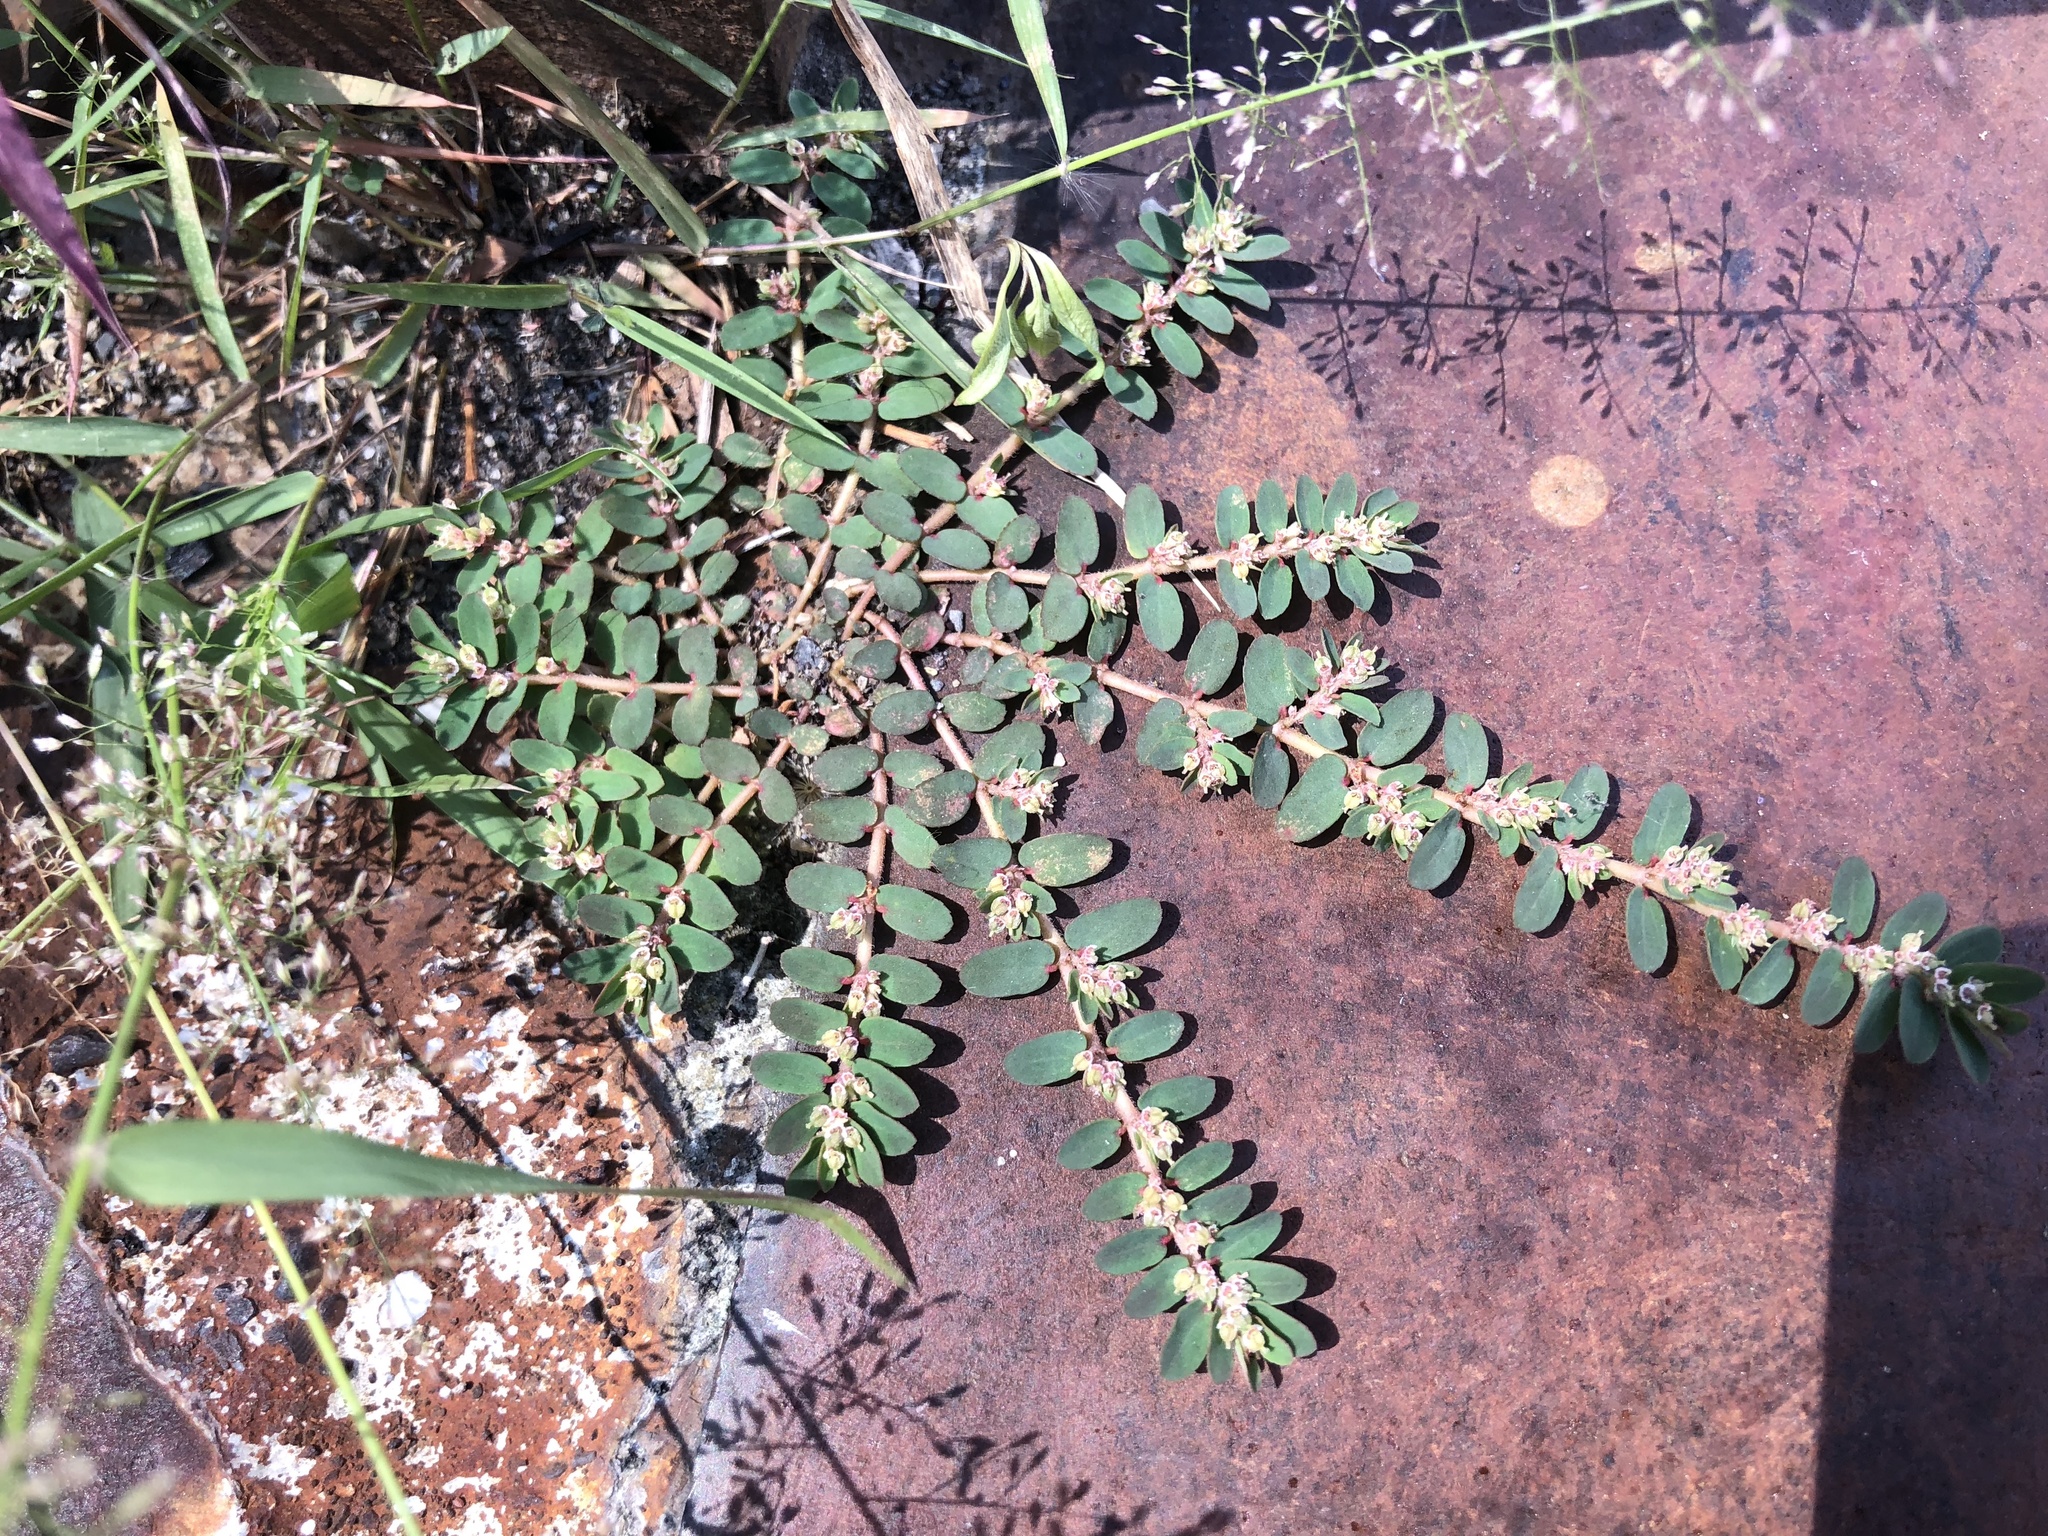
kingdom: Plantae
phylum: Tracheophyta
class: Magnoliopsida
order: Malpighiales
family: Euphorbiaceae
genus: Euphorbia
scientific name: Euphorbia thymifolia
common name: Gulf sandmat
